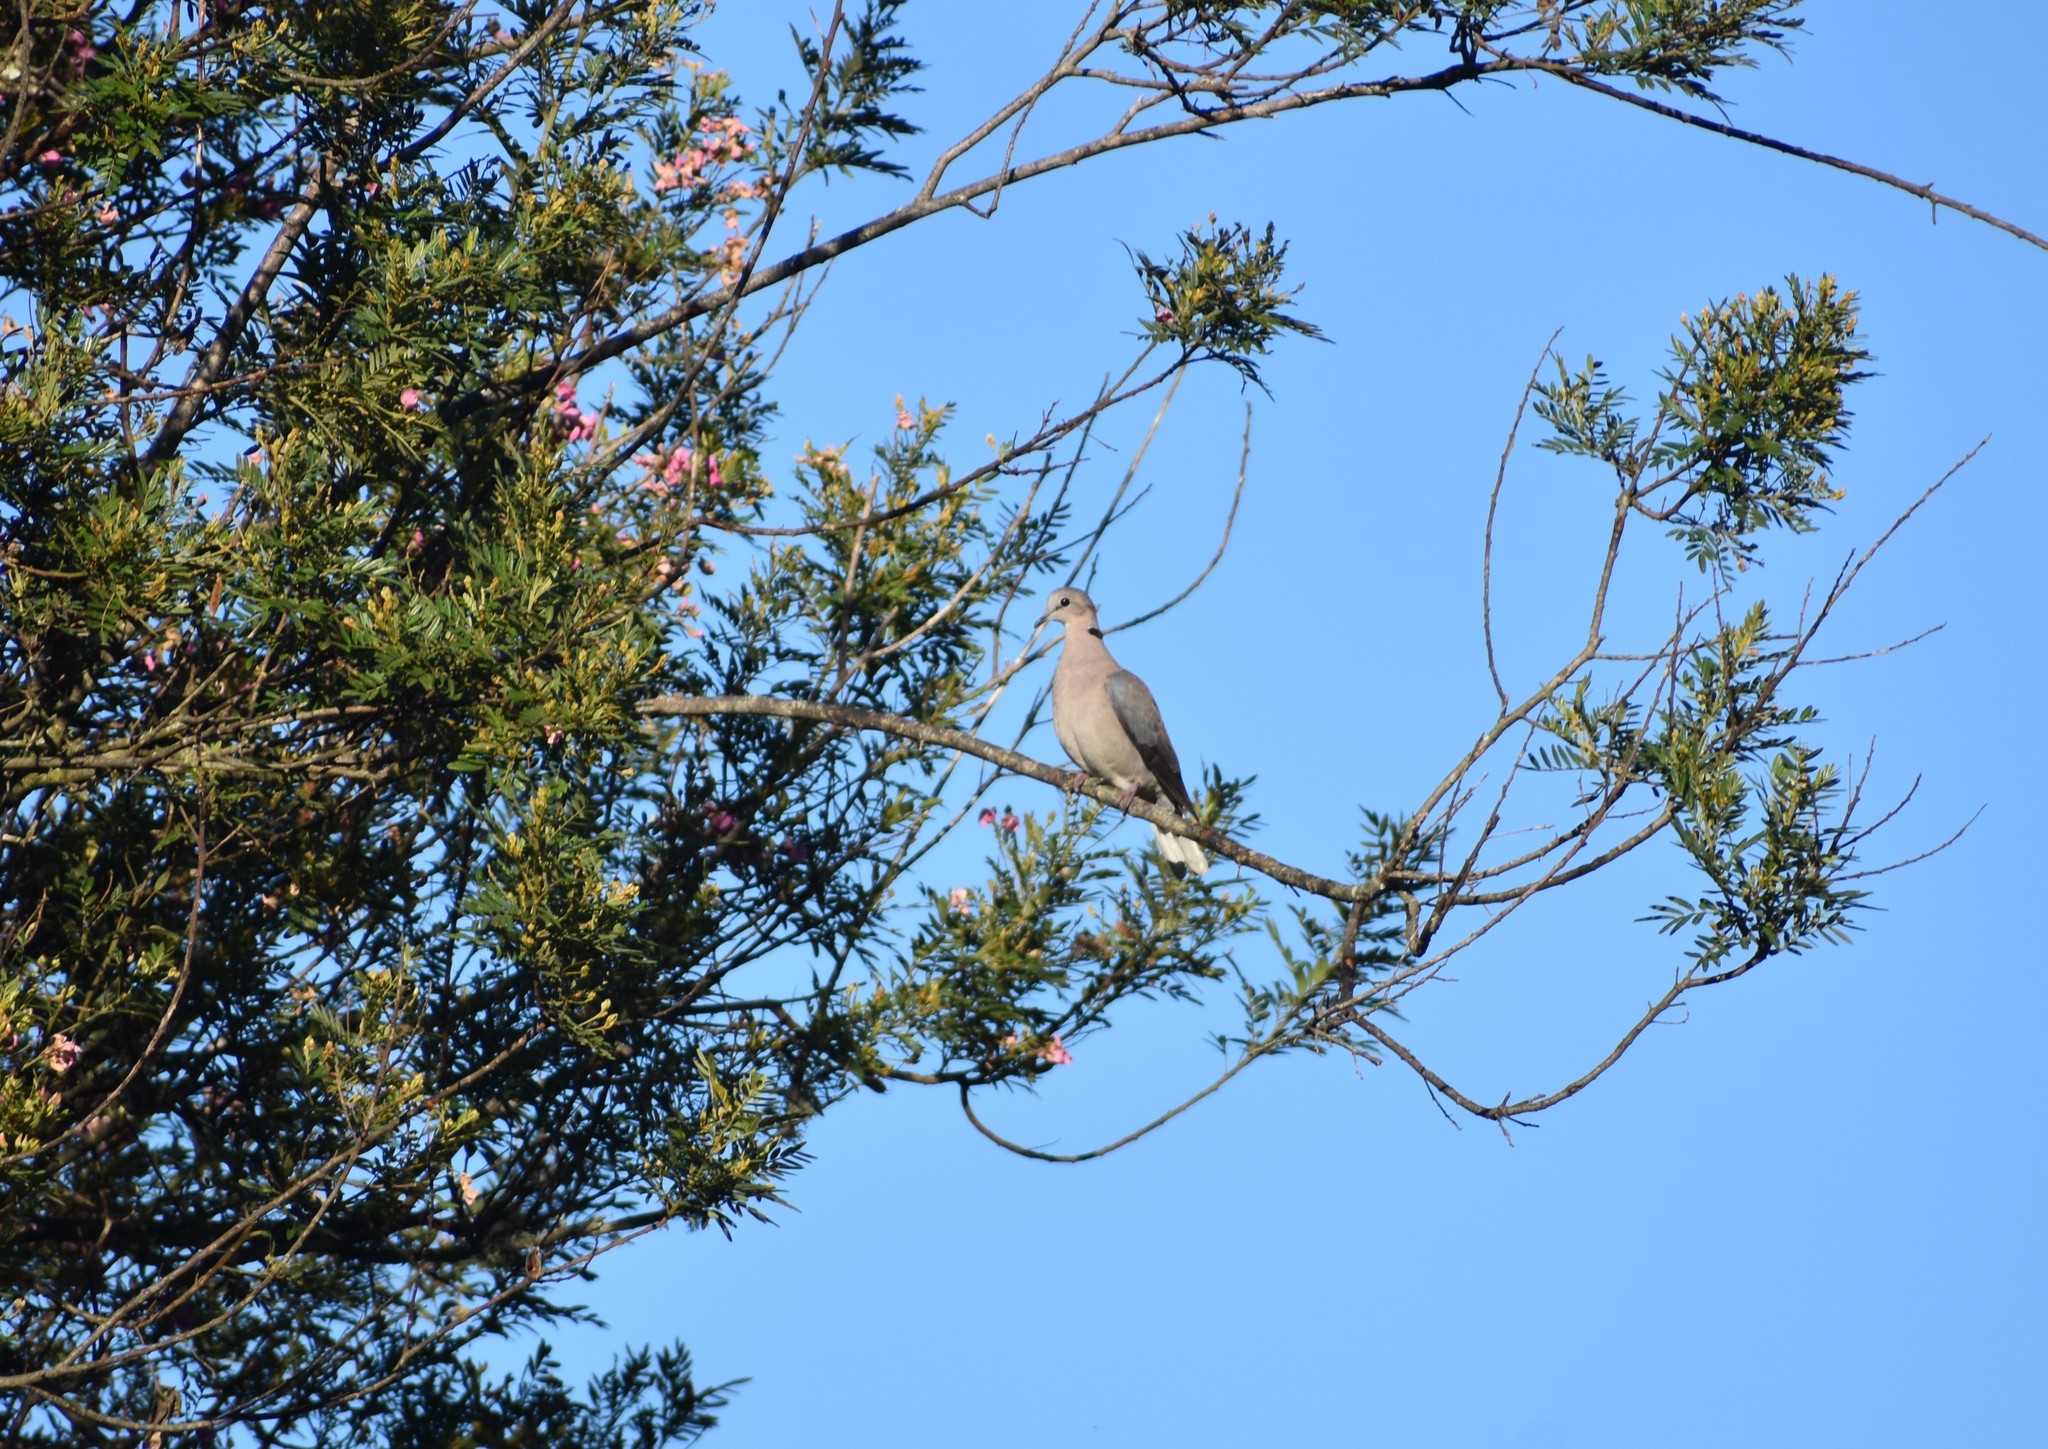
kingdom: Animalia
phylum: Chordata
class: Aves
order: Columbiformes
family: Columbidae
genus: Streptopelia
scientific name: Streptopelia capicola
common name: Ring-necked dove
